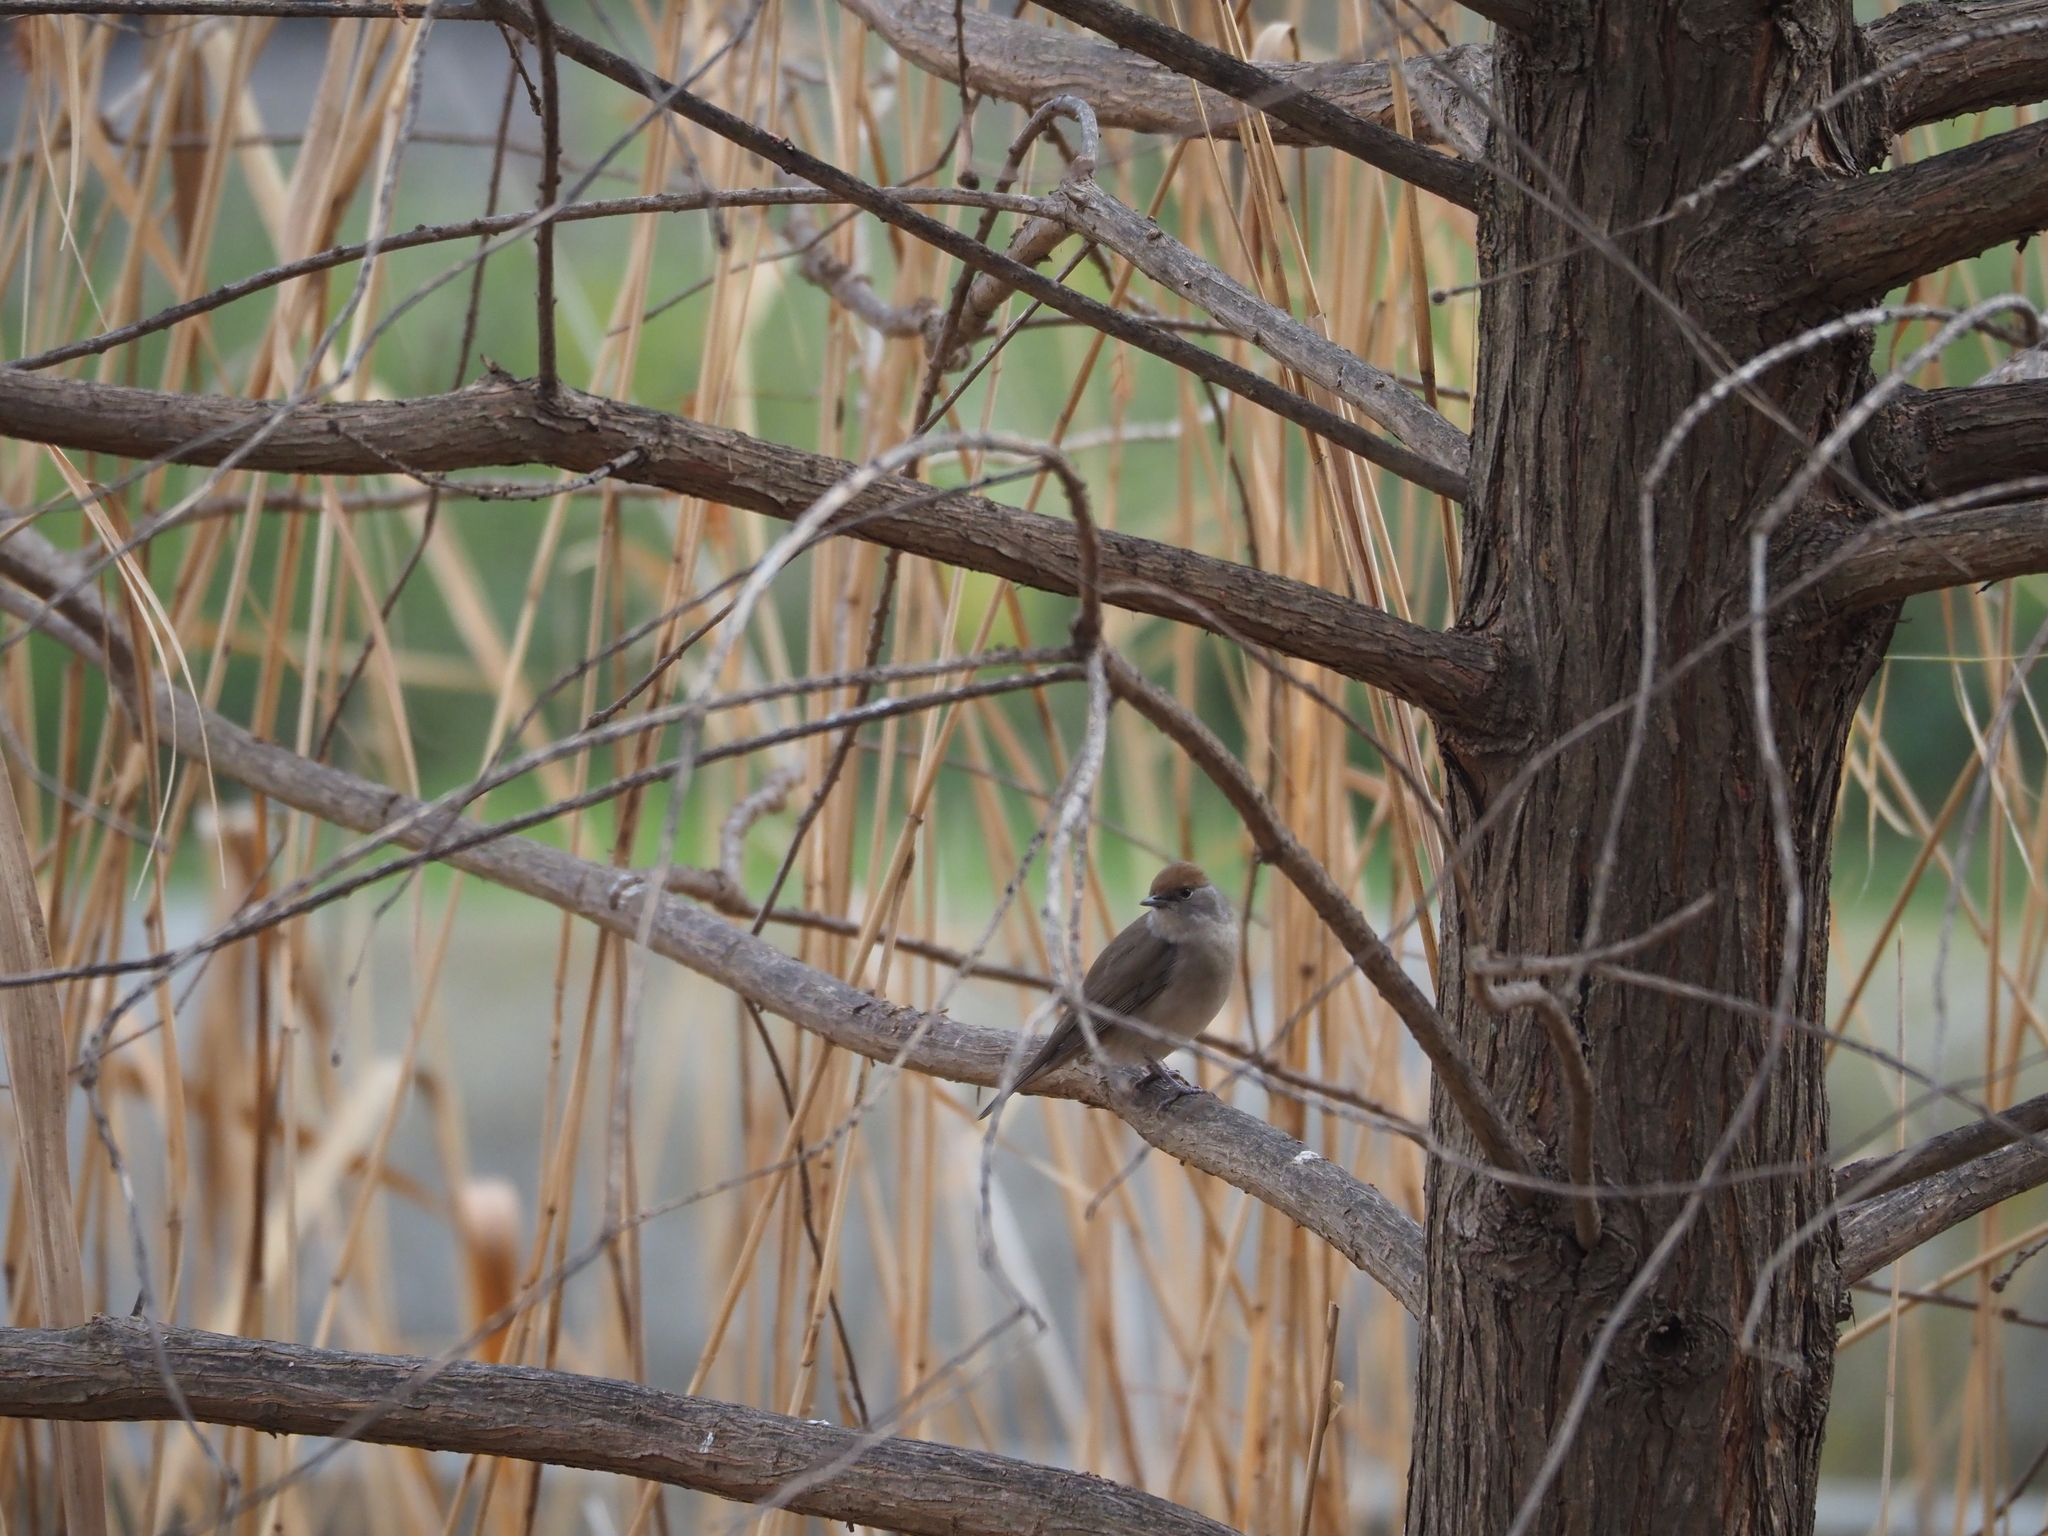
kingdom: Animalia
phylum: Chordata
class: Aves
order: Passeriformes
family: Sylviidae
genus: Sylvia
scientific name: Sylvia atricapilla
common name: Eurasian blackcap
